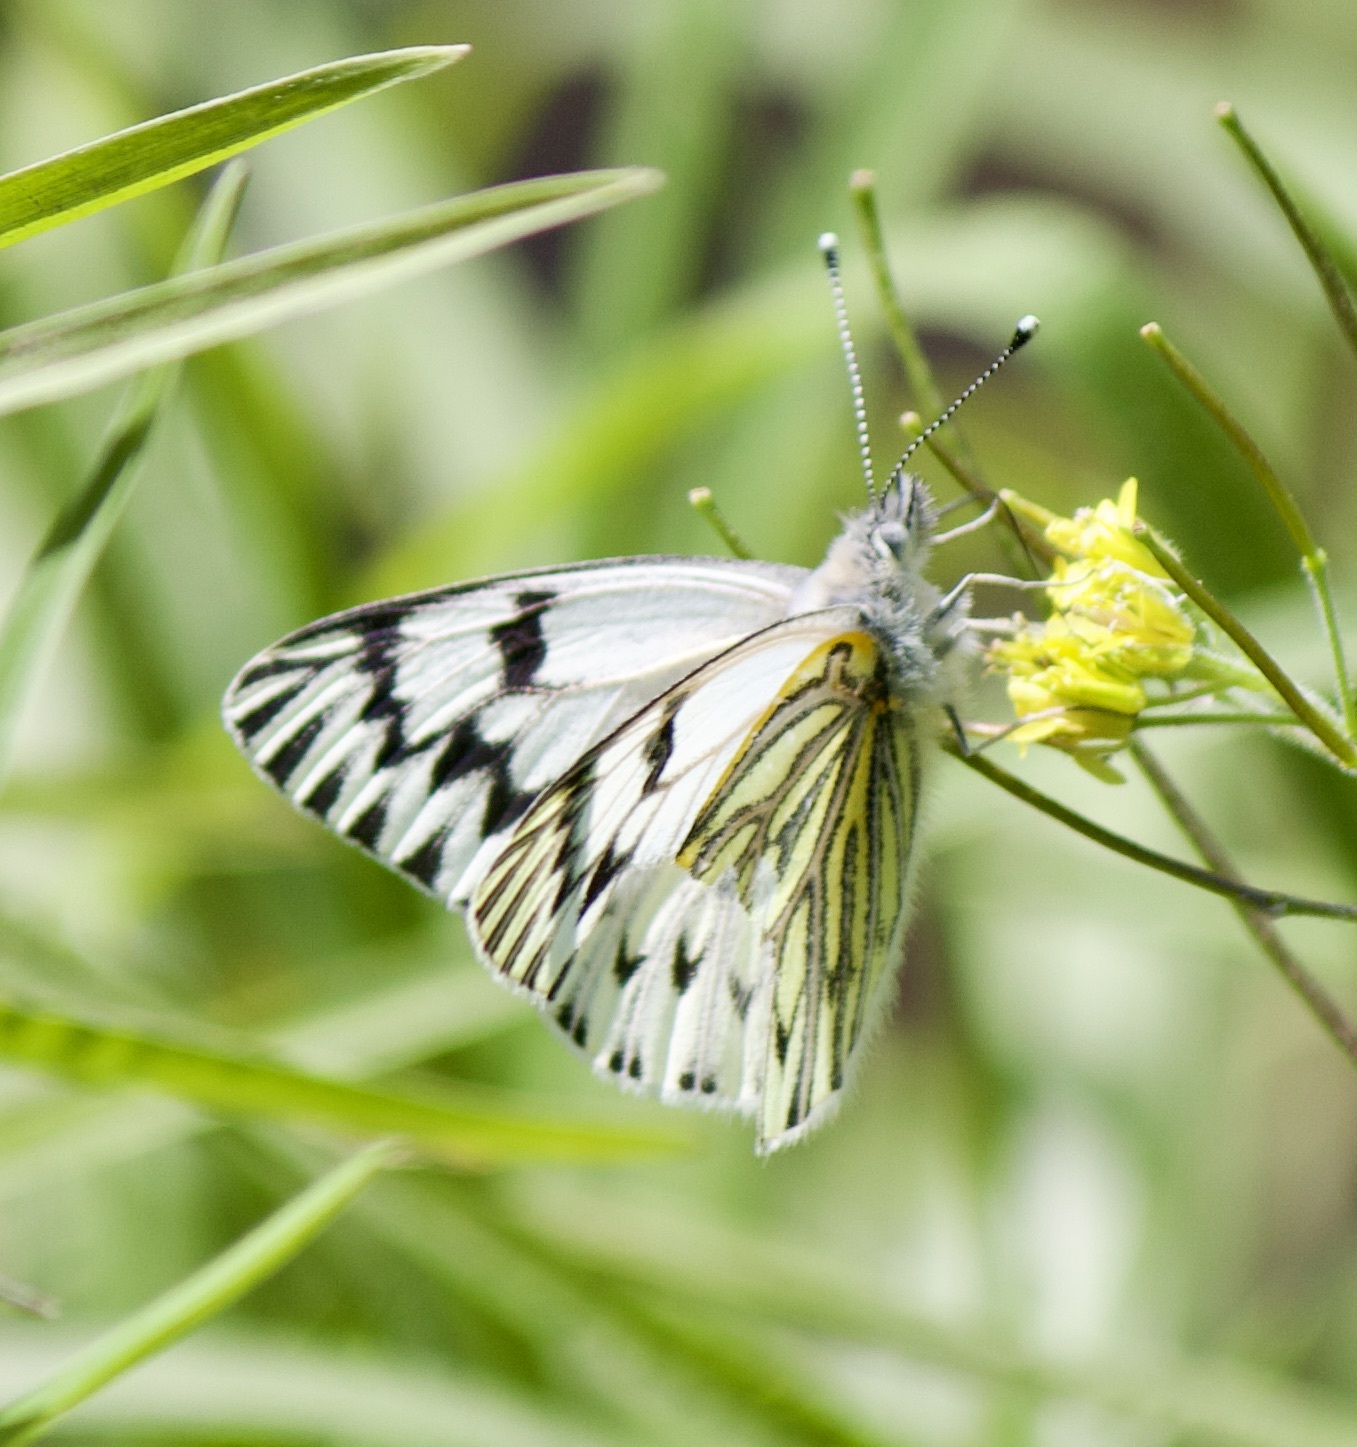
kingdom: Animalia
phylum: Arthropoda
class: Insecta
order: Lepidoptera
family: Pieridae
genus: Tatochila
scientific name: Tatochila mercedis
